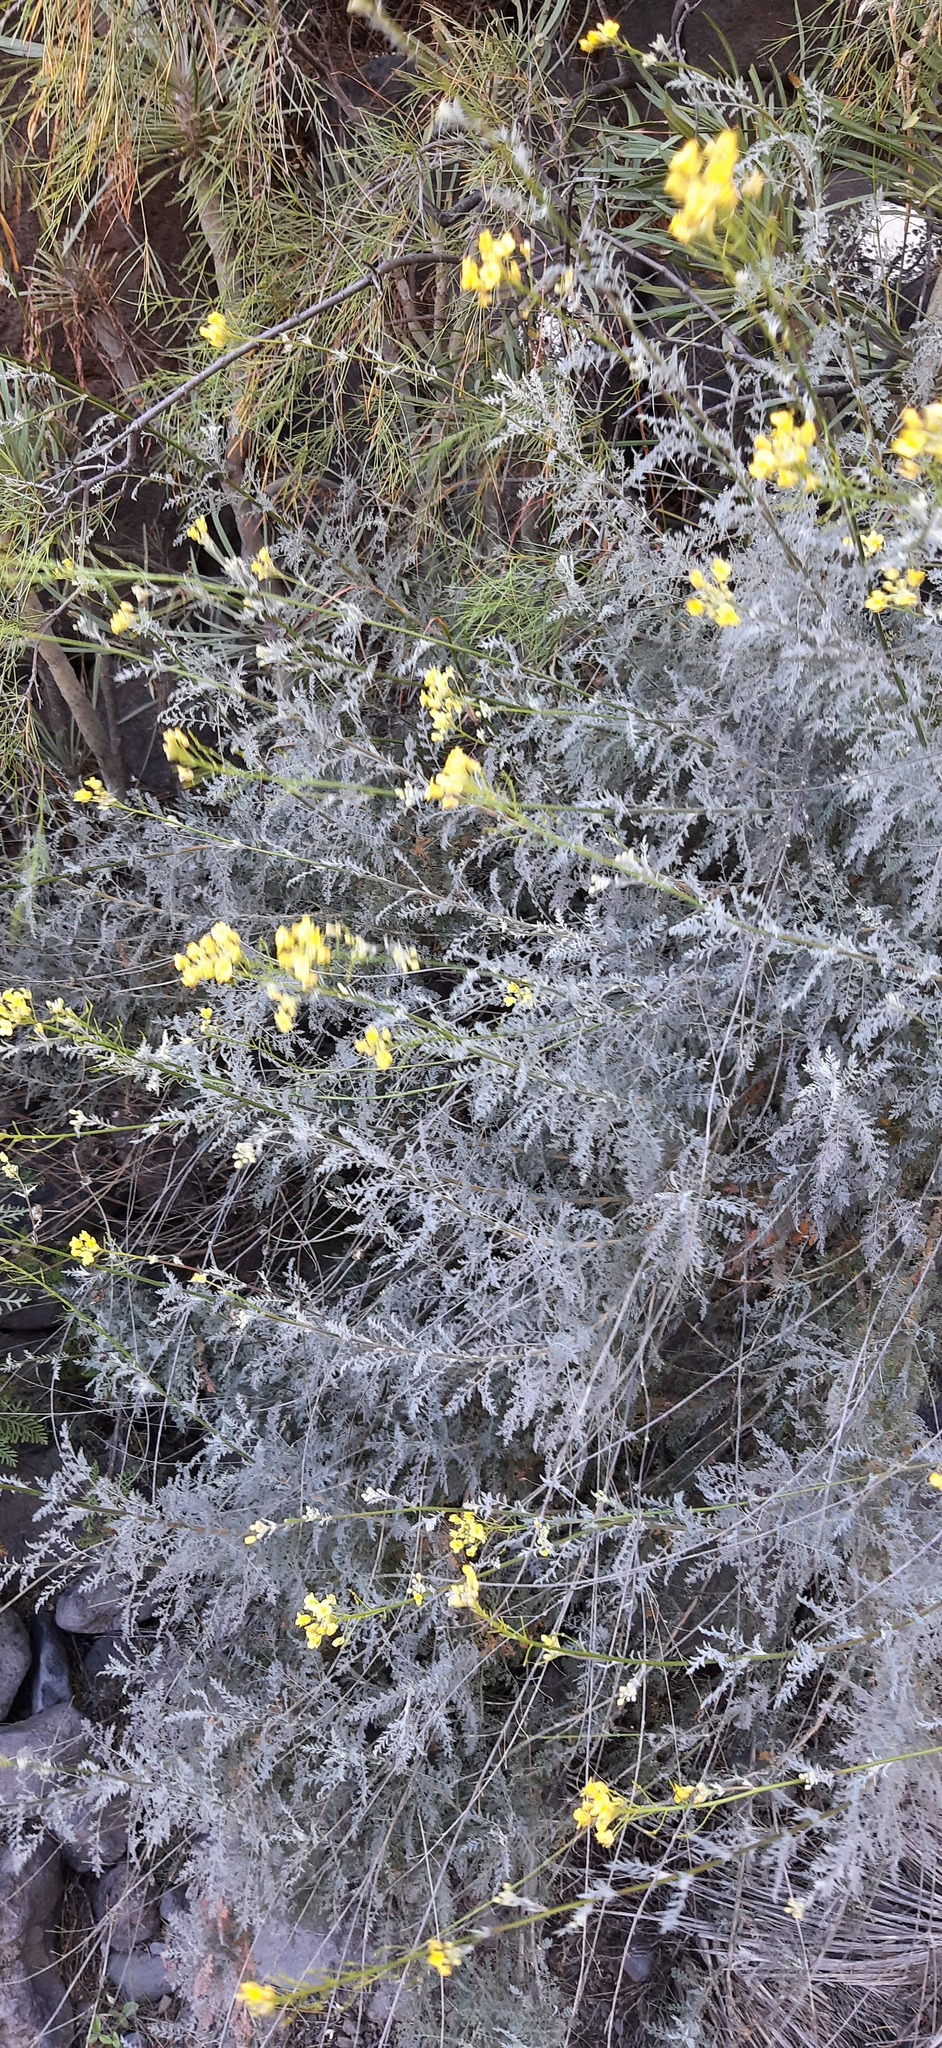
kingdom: Plantae
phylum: Tracheophyta
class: Magnoliopsida
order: Brassicales
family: Brassicaceae
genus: Descurainia
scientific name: Descurainia millefolia
